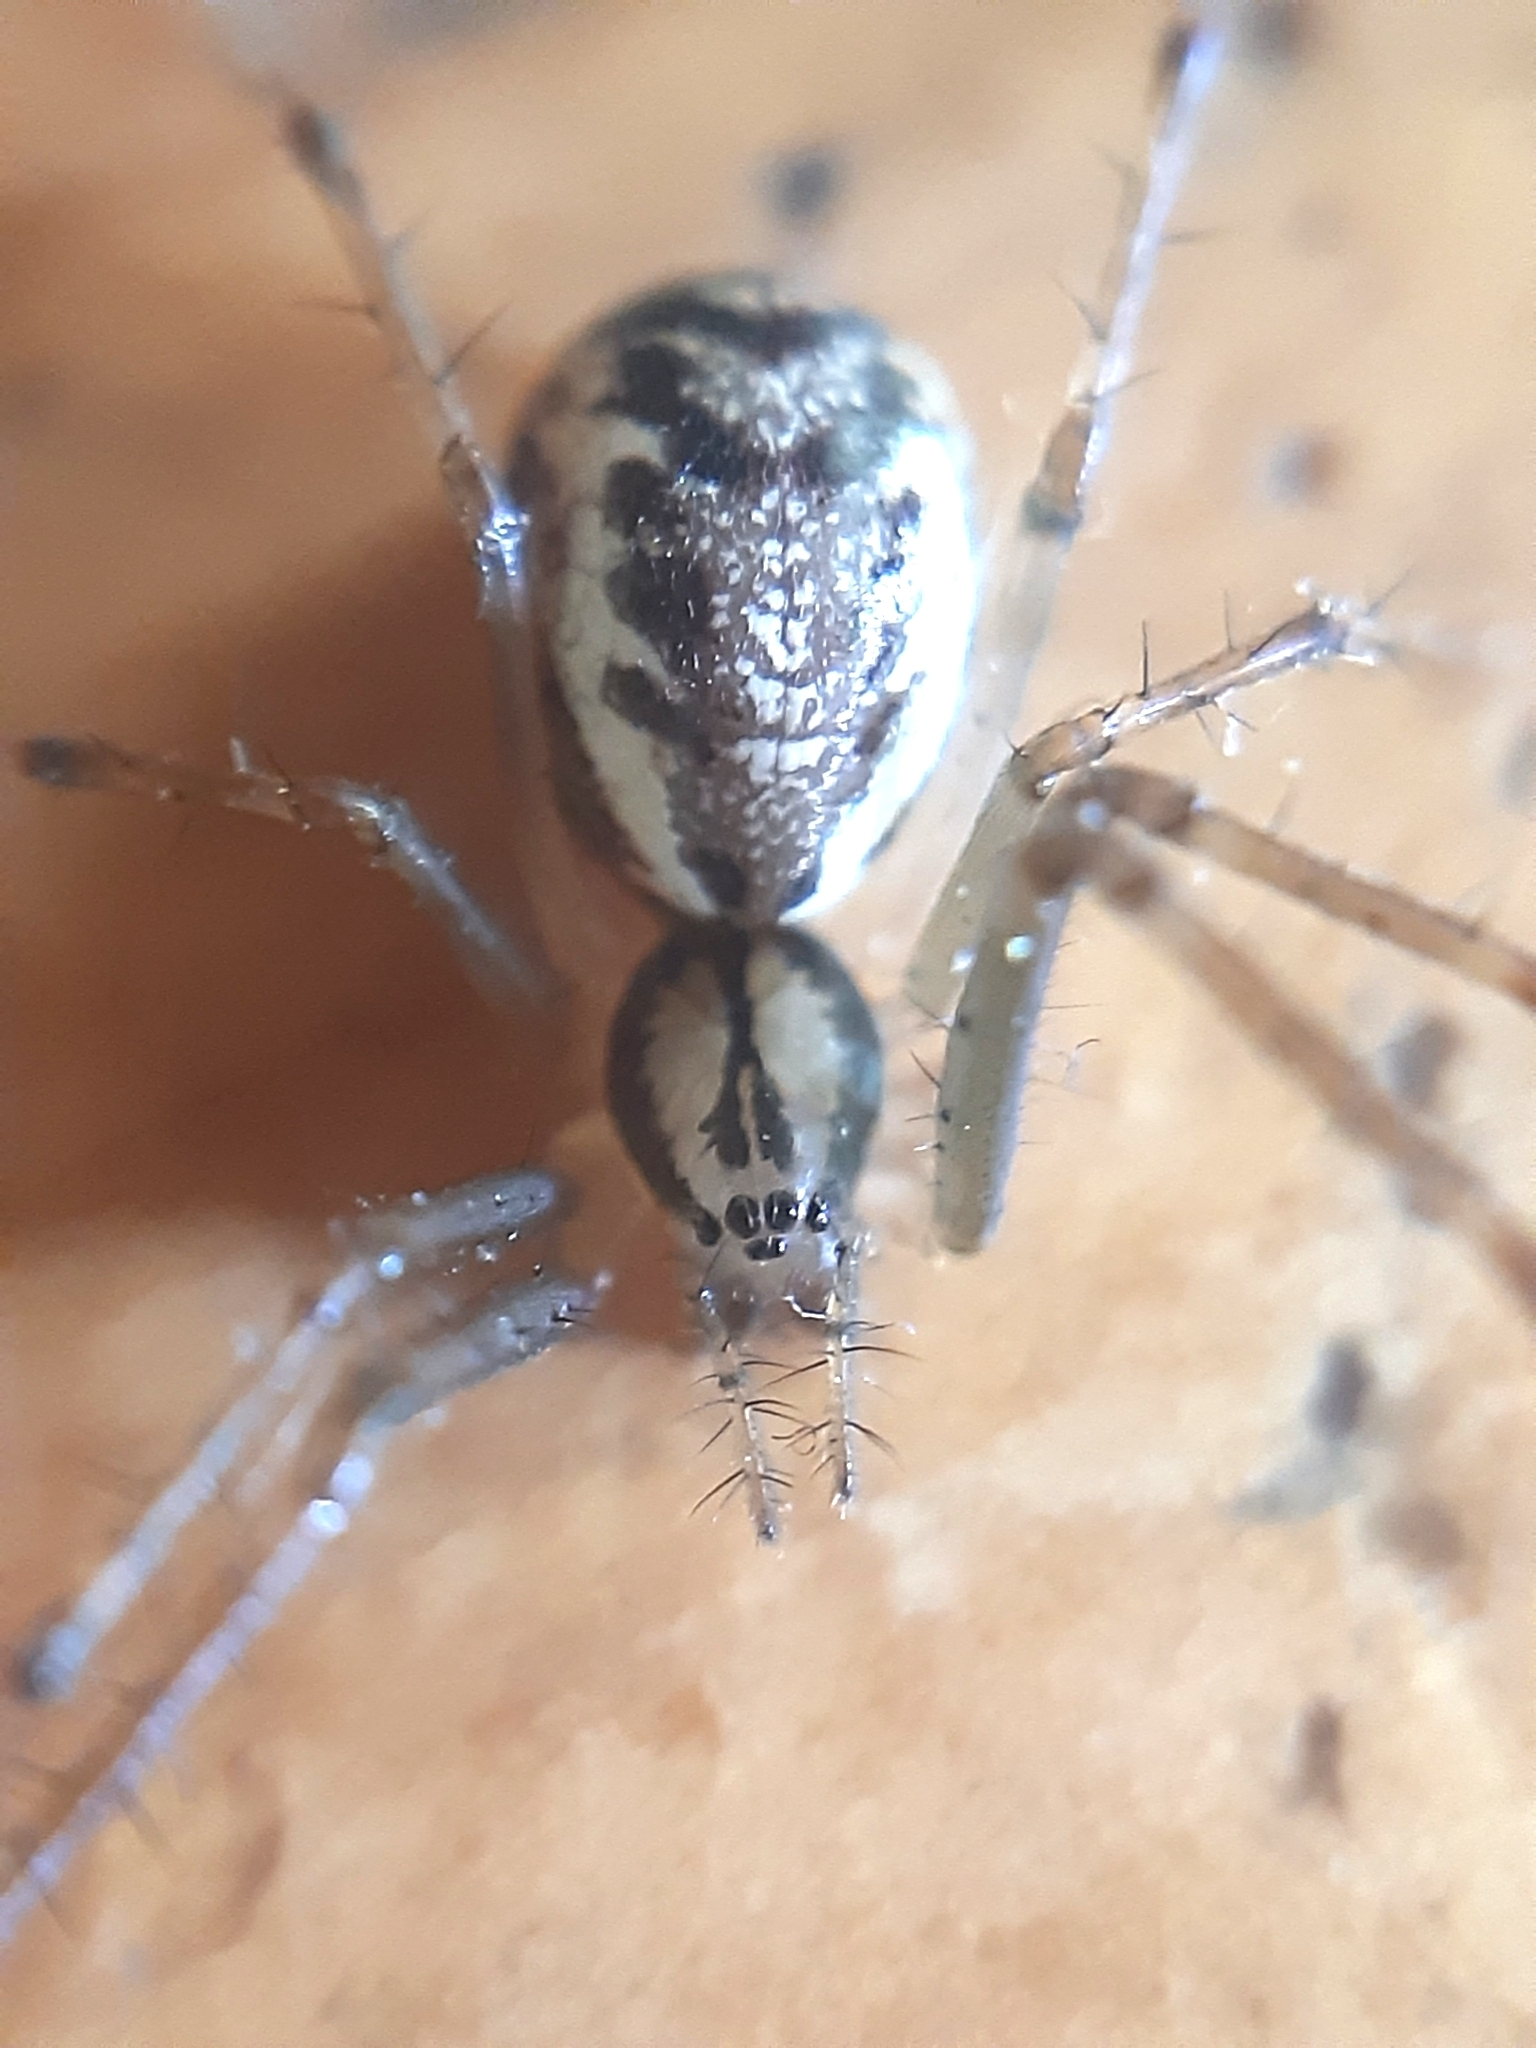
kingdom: Animalia
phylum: Arthropoda
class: Arachnida
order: Araneae
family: Linyphiidae
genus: Linyphia
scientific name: Linyphia triangularis
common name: Money spider
